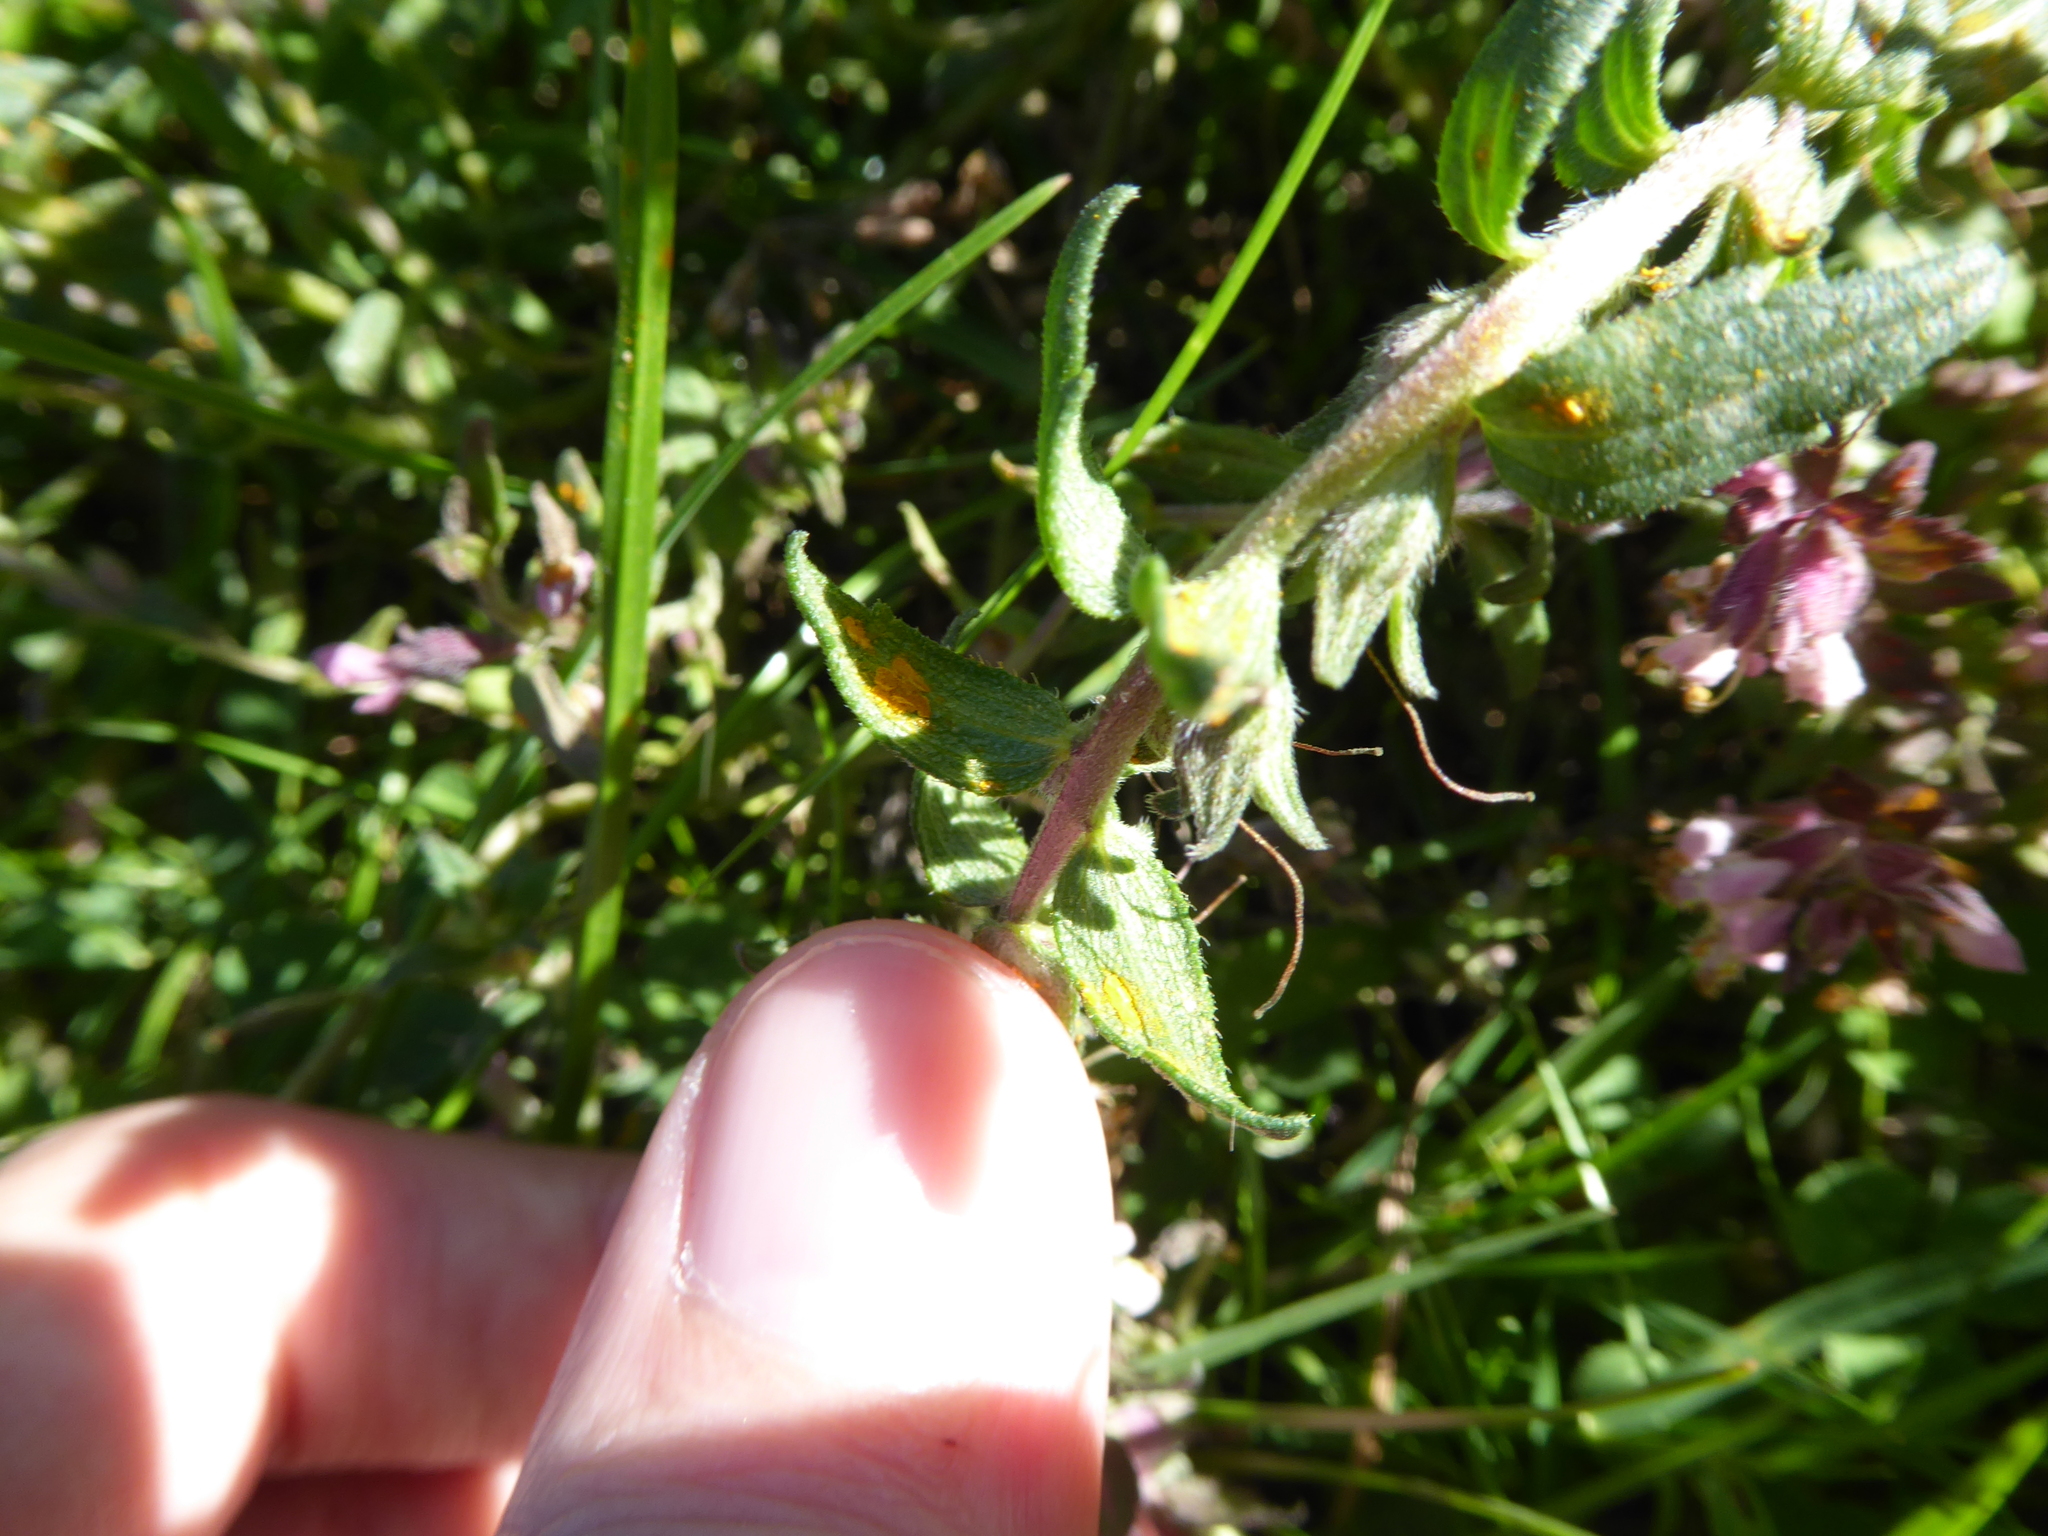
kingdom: Fungi
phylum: Basidiomycota
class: Pucciniomycetes
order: Pucciniales
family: Coleosporiaceae
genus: Coleosporium
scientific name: Coleosporium euphrasiae
